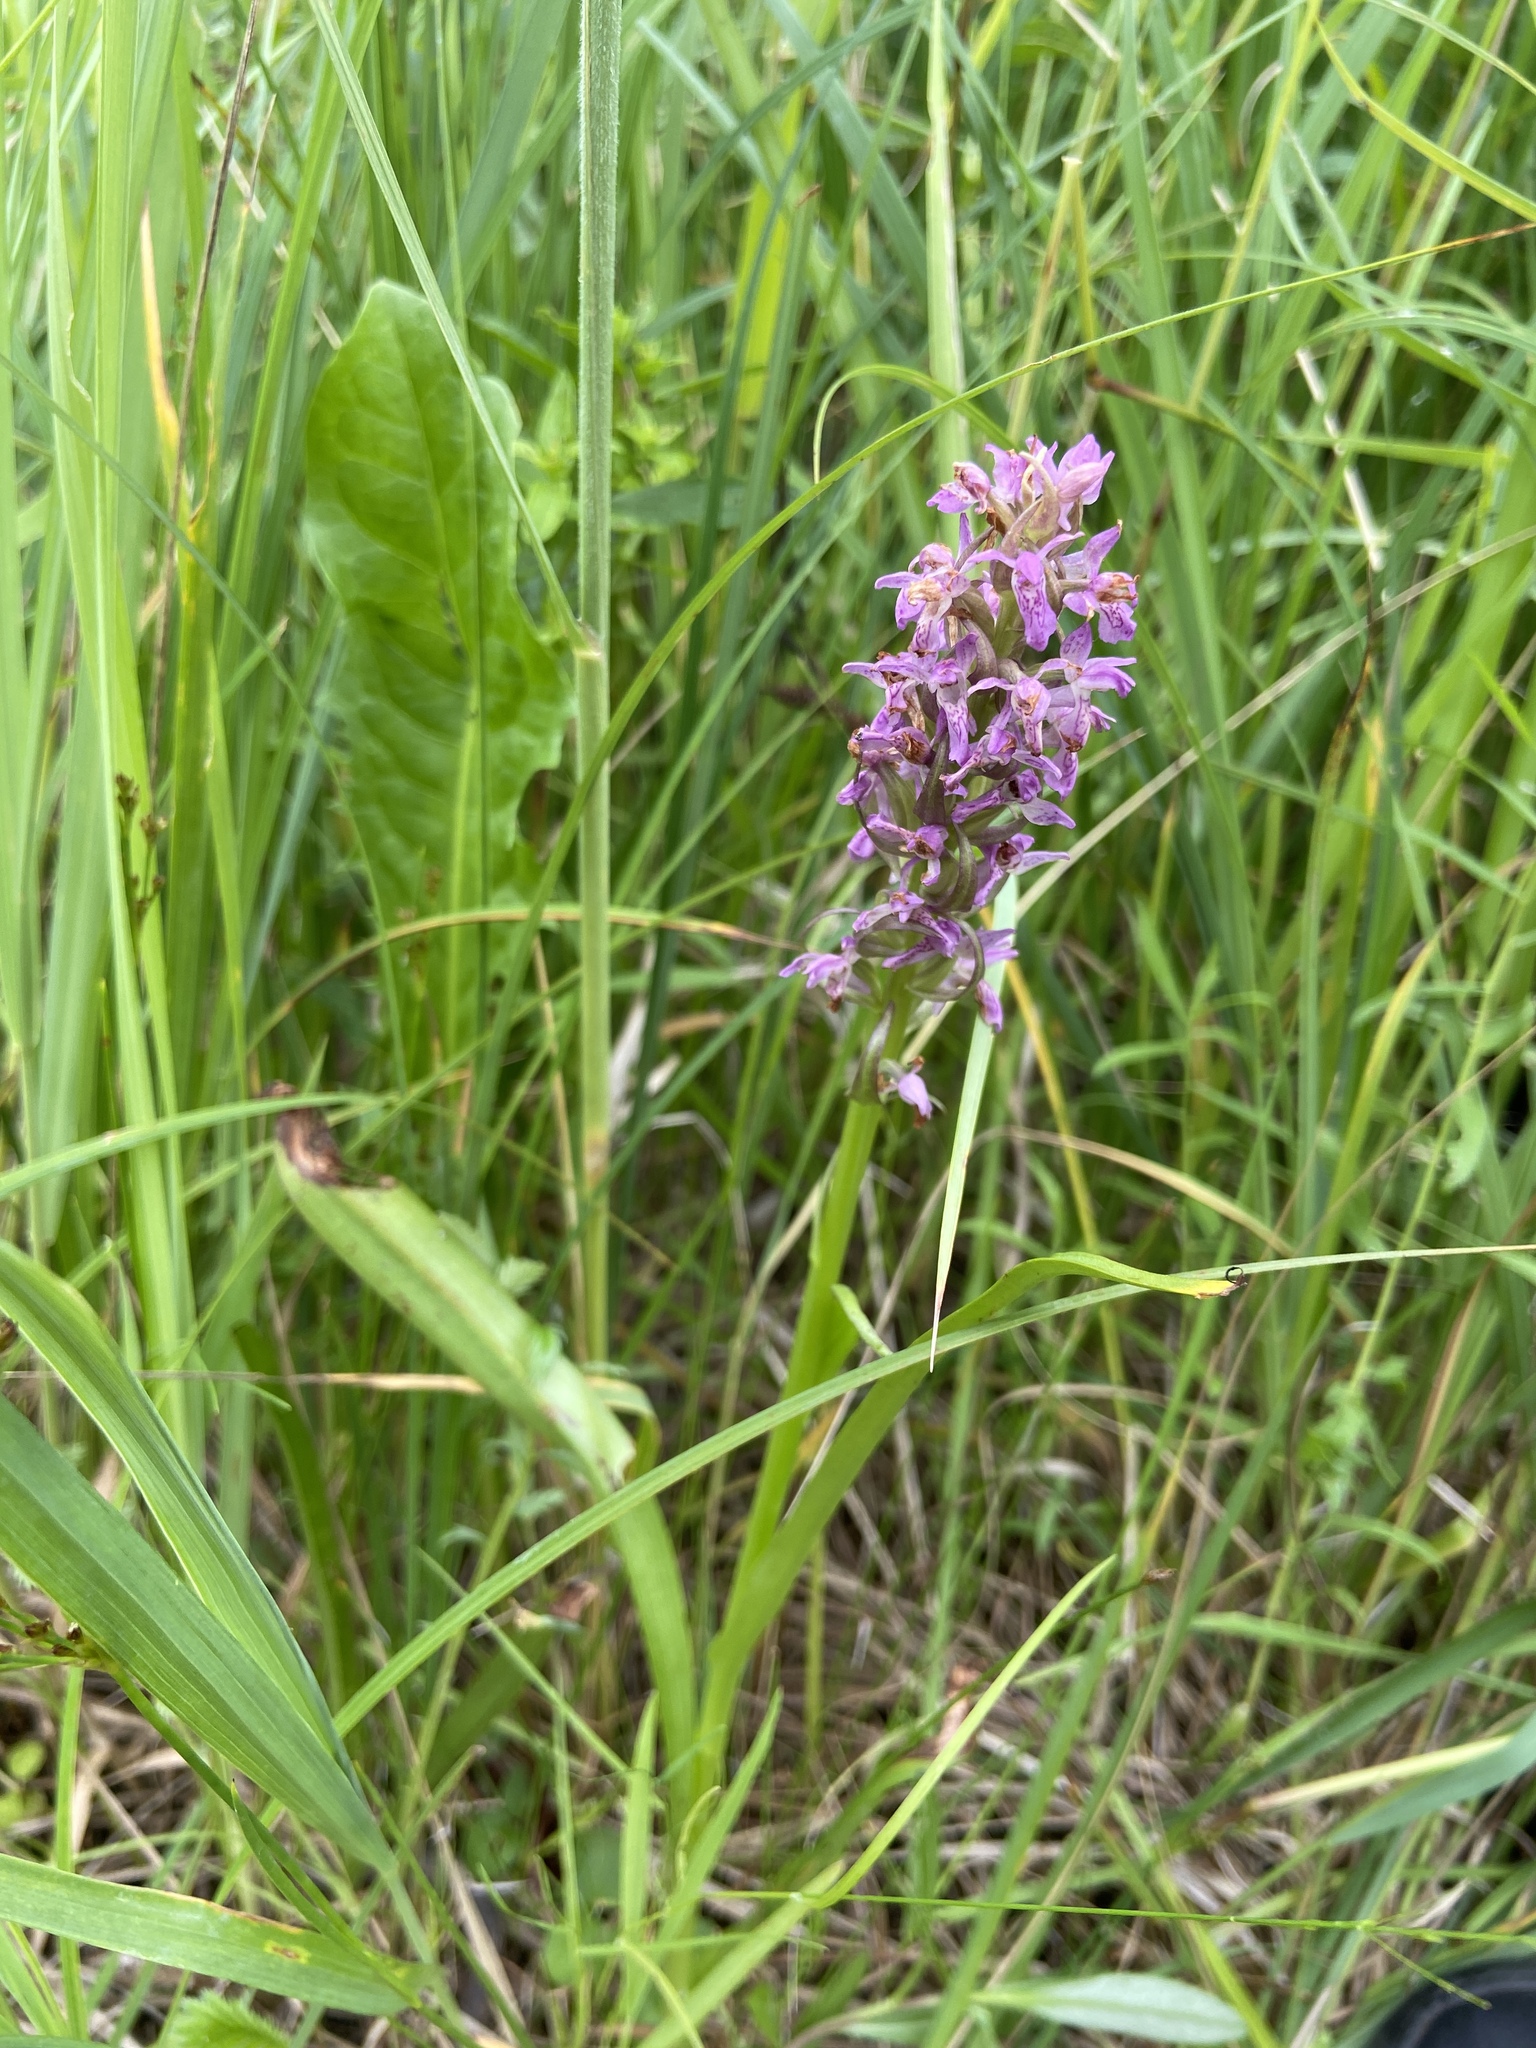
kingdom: Plantae
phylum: Tracheophyta
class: Liliopsida
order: Asparagales
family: Orchidaceae
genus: Dactylorhiza
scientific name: Dactylorhiza incarnata
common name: Early marsh-orchid
